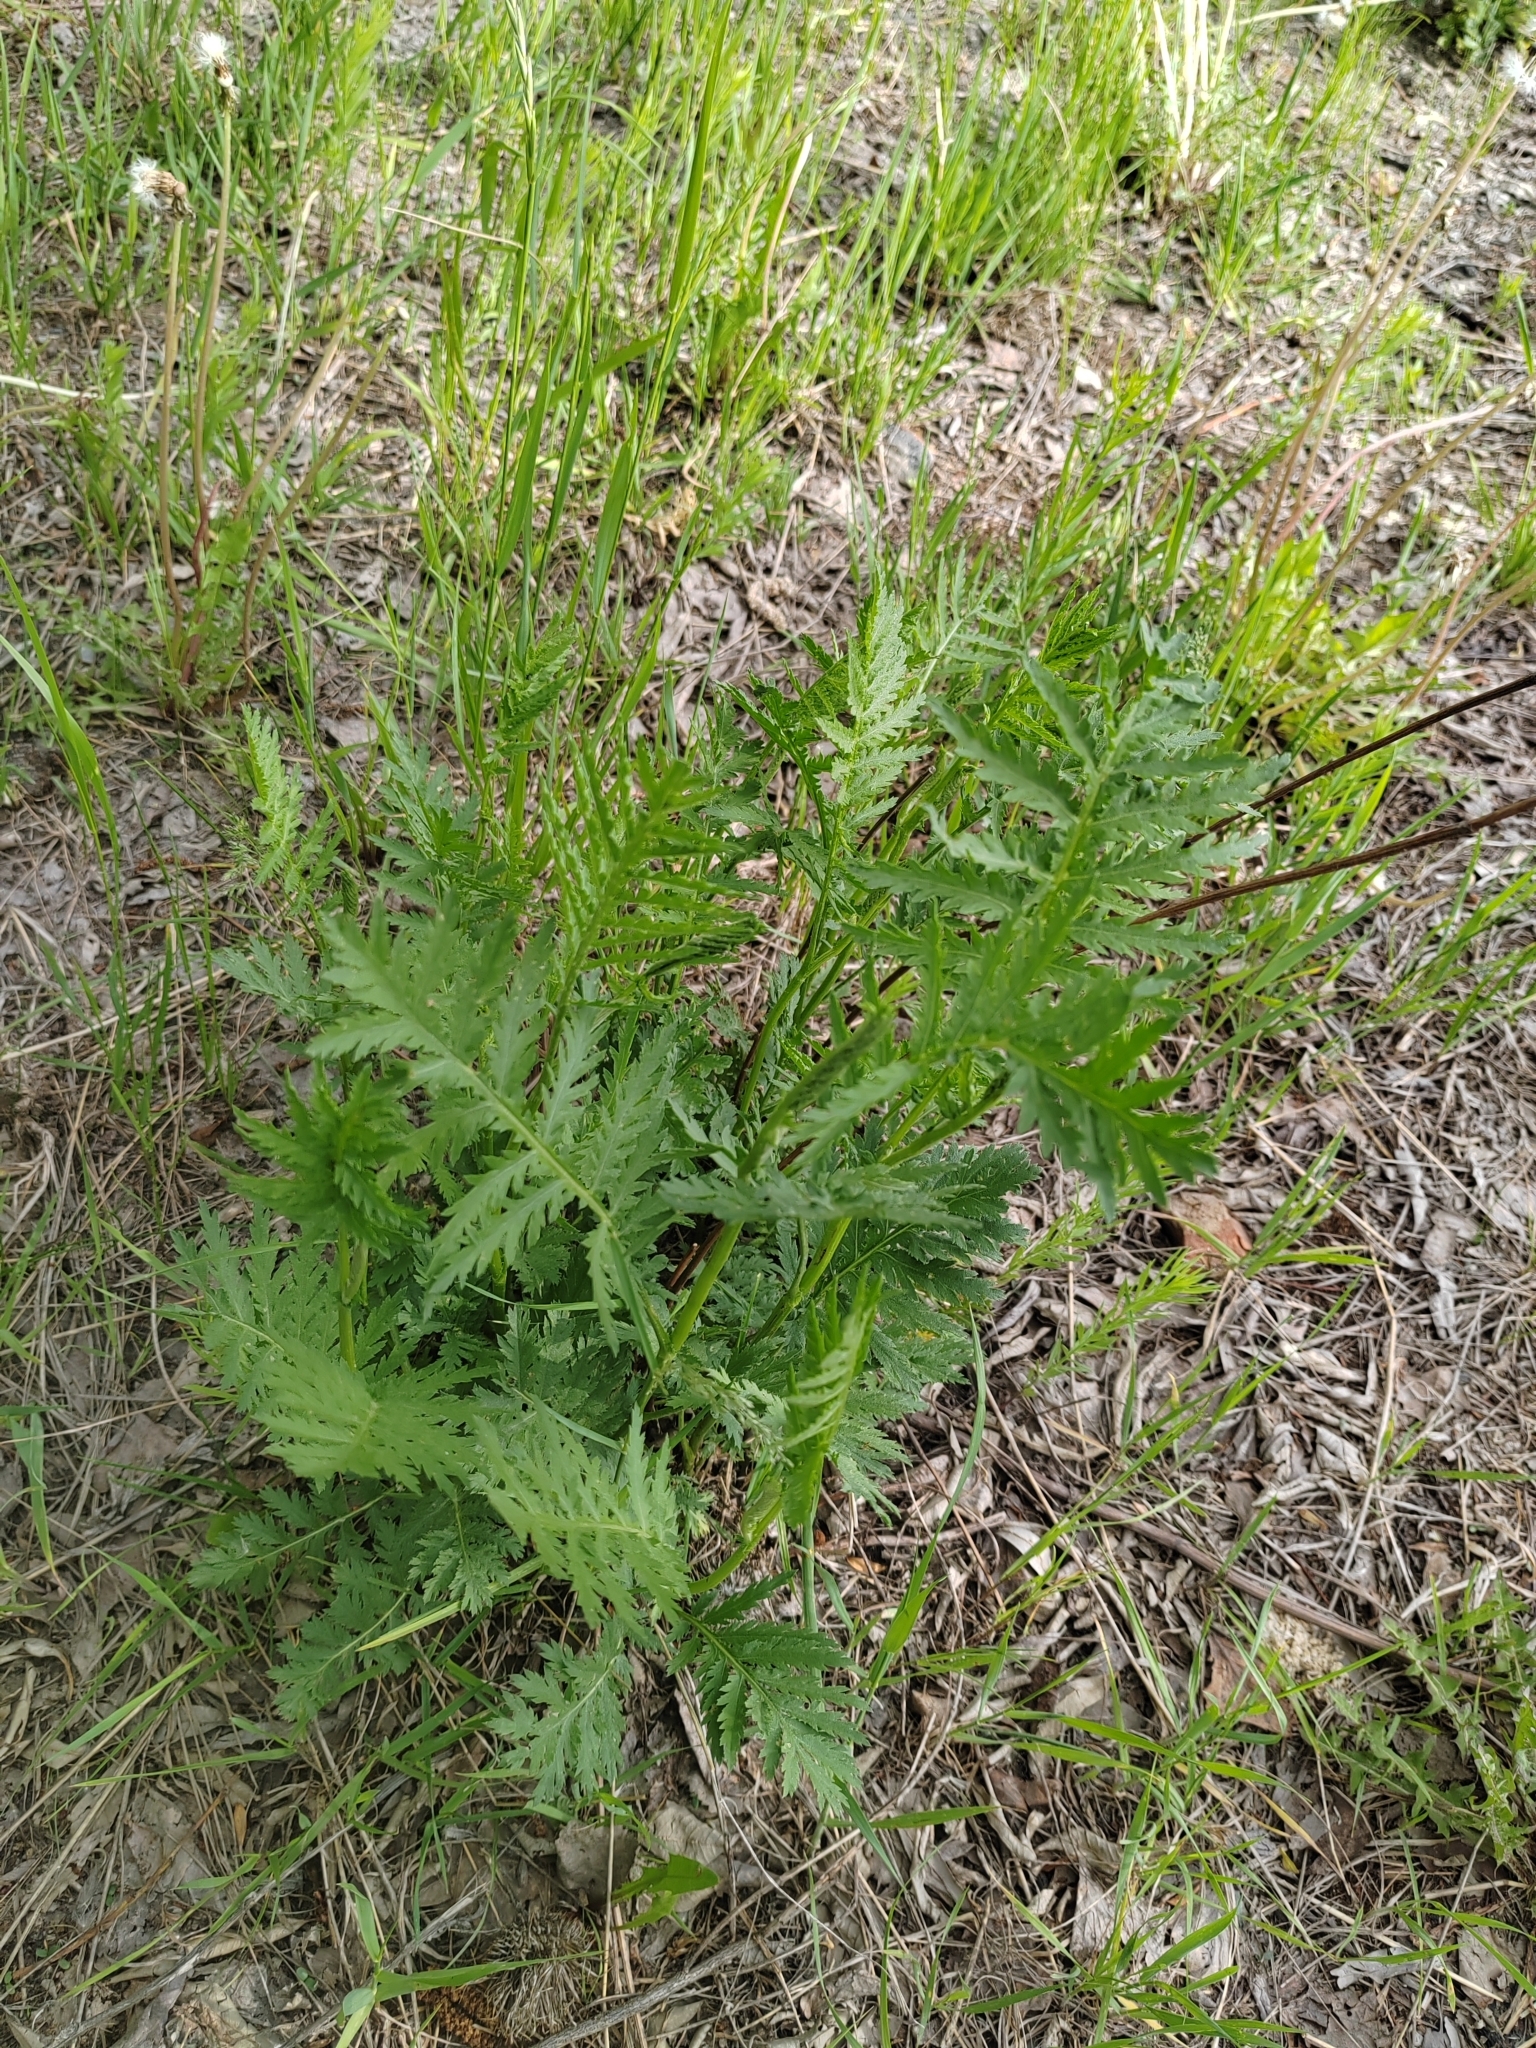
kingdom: Plantae
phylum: Tracheophyta
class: Magnoliopsida
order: Asterales
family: Asteraceae
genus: Tanacetum
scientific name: Tanacetum vulgare
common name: Common tansy
